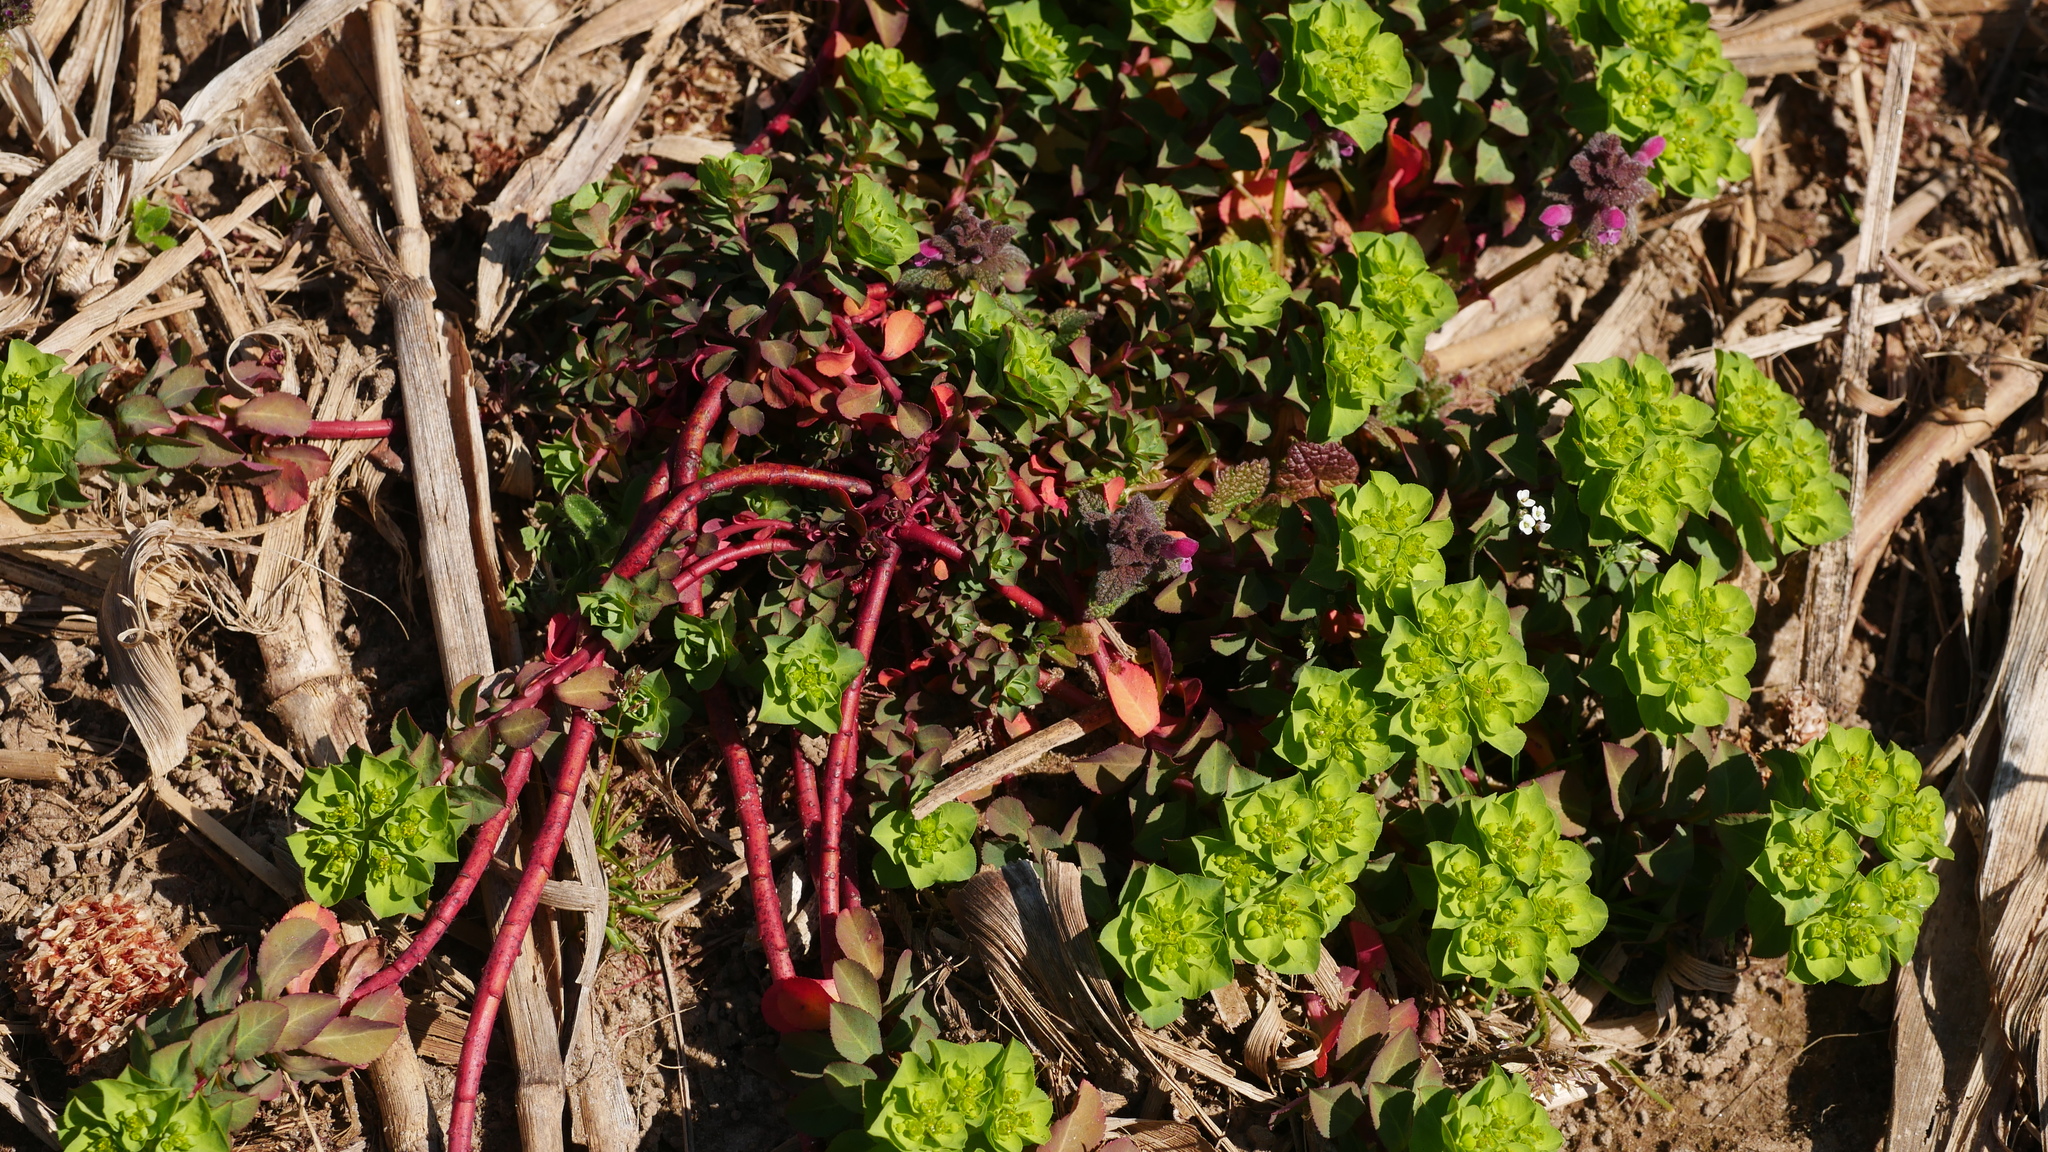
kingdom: Plantae
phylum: Tracheophyta
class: Magnoliopsida
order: Malpighiales
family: Euphorbiaceae
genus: Euphorbia
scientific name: Euphorbia helioscopia
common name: Sun spurge
